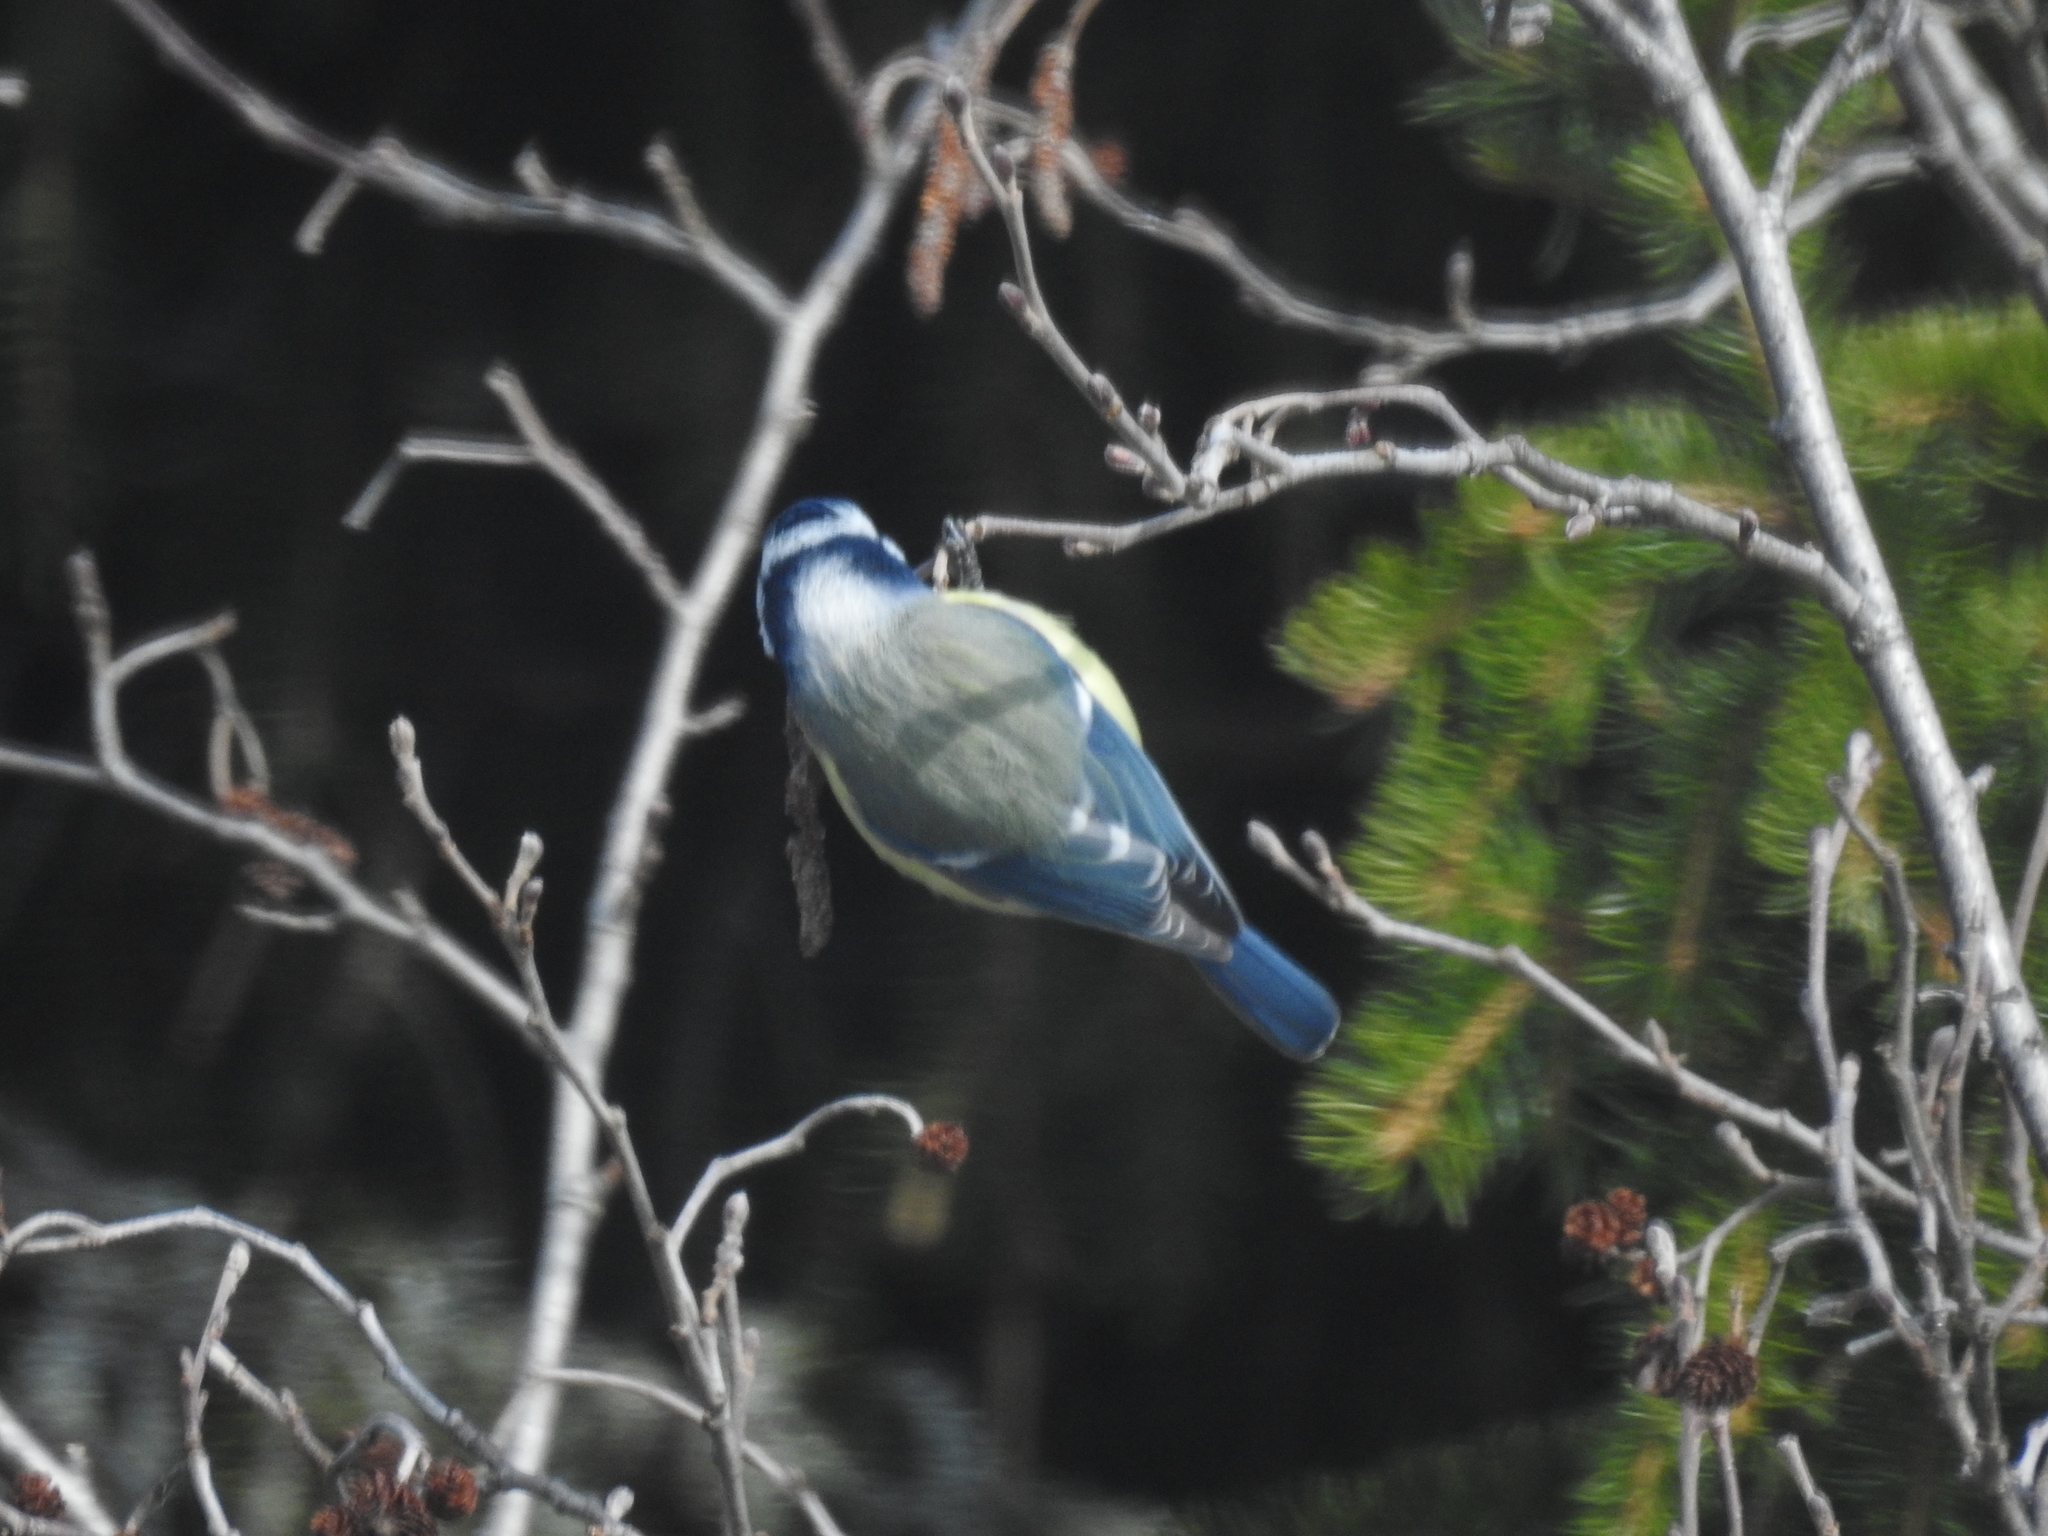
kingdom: Animalia
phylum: Chordata
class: Aves
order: Passeriformes
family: Paridae
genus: Cyanistes
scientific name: Cyanistes caeruleus
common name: Eurasian blue tit
